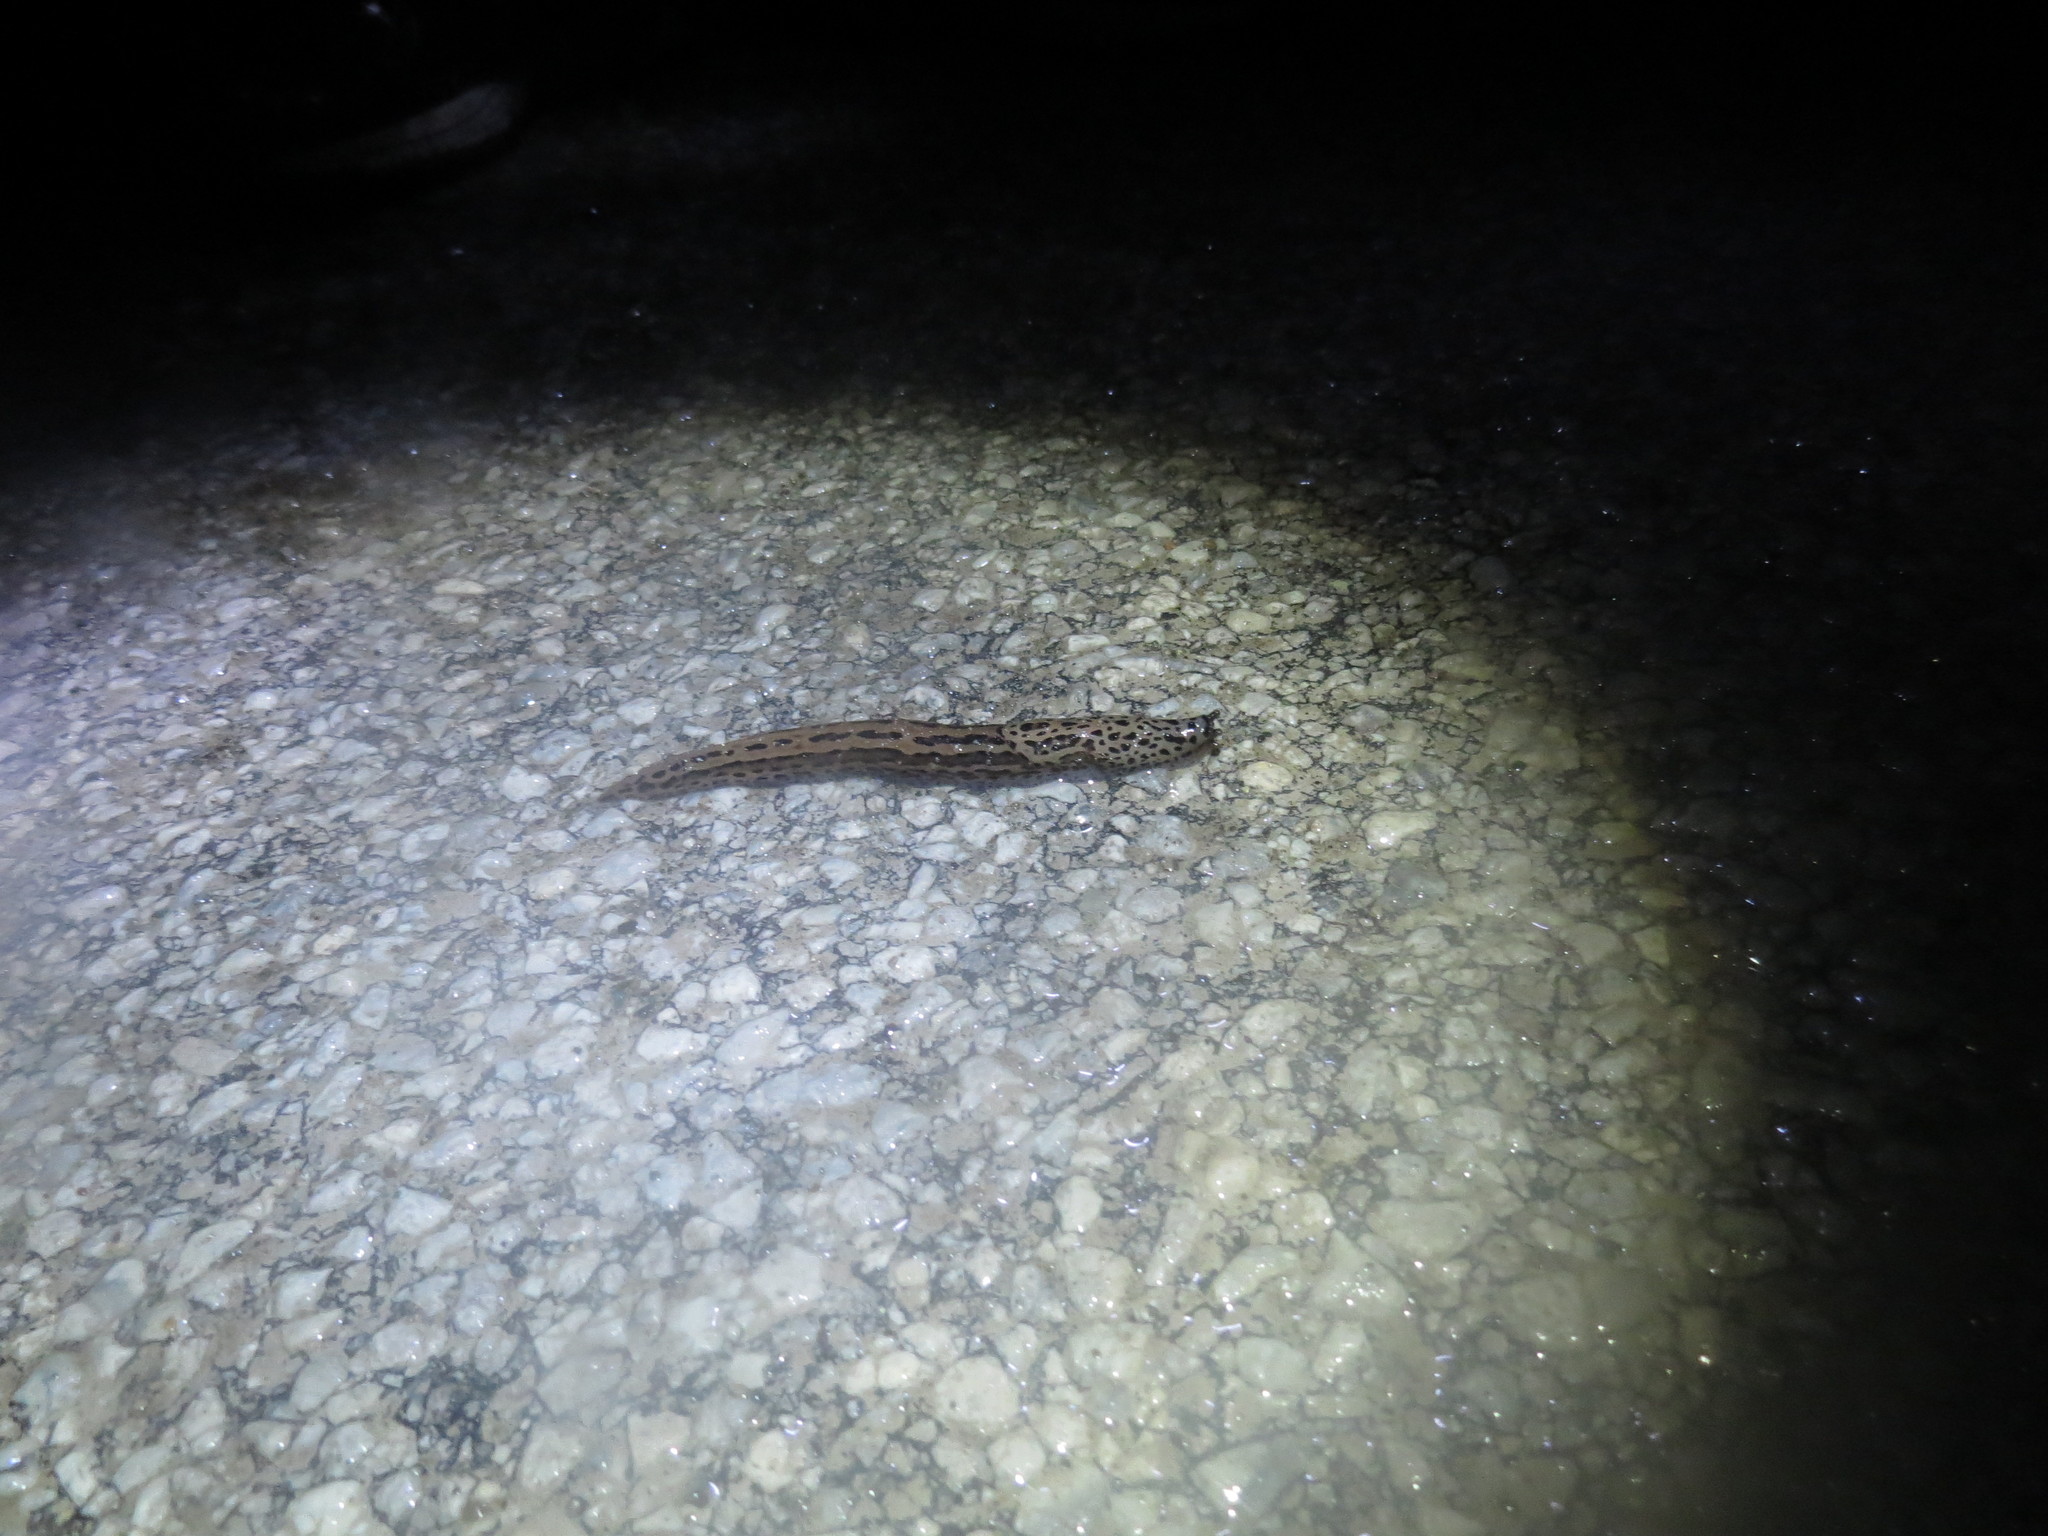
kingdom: Animalia
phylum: Mollusca
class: Gastropoda
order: Stylommatophora
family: Limacidae
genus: Limax
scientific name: Limax maximus
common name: Great grey slug
